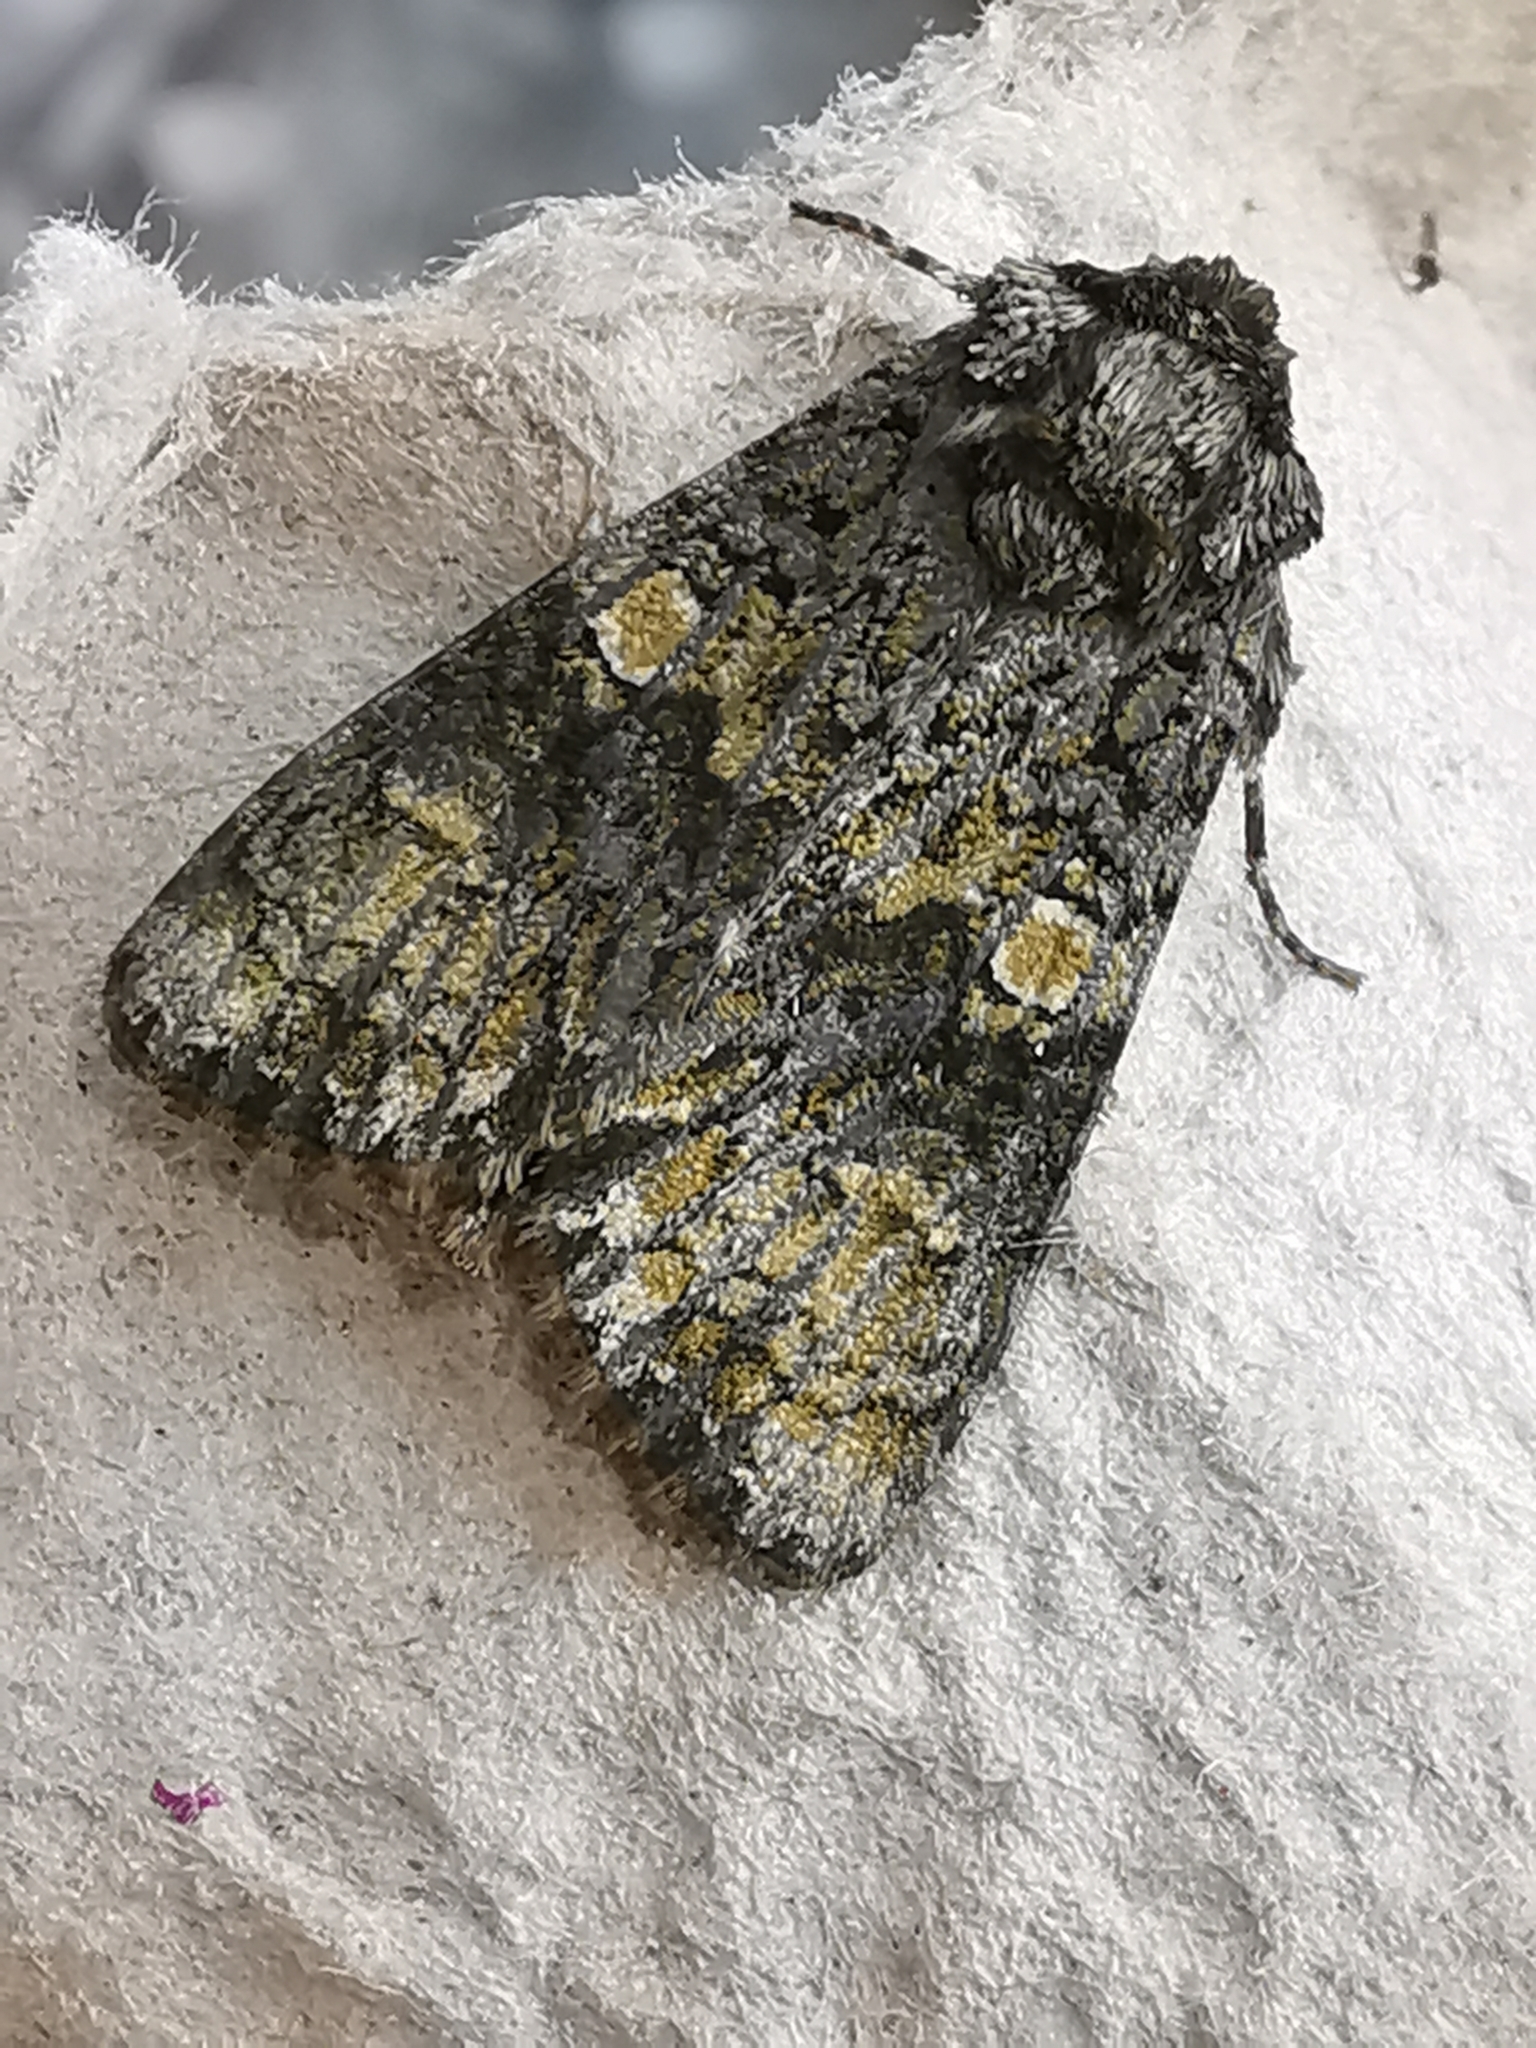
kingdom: Animalia
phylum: Arthropoda
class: Insecta
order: Lepidoptera
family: Noctuidae
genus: Craniophora
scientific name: Craniophora ligustri
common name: Coronet
